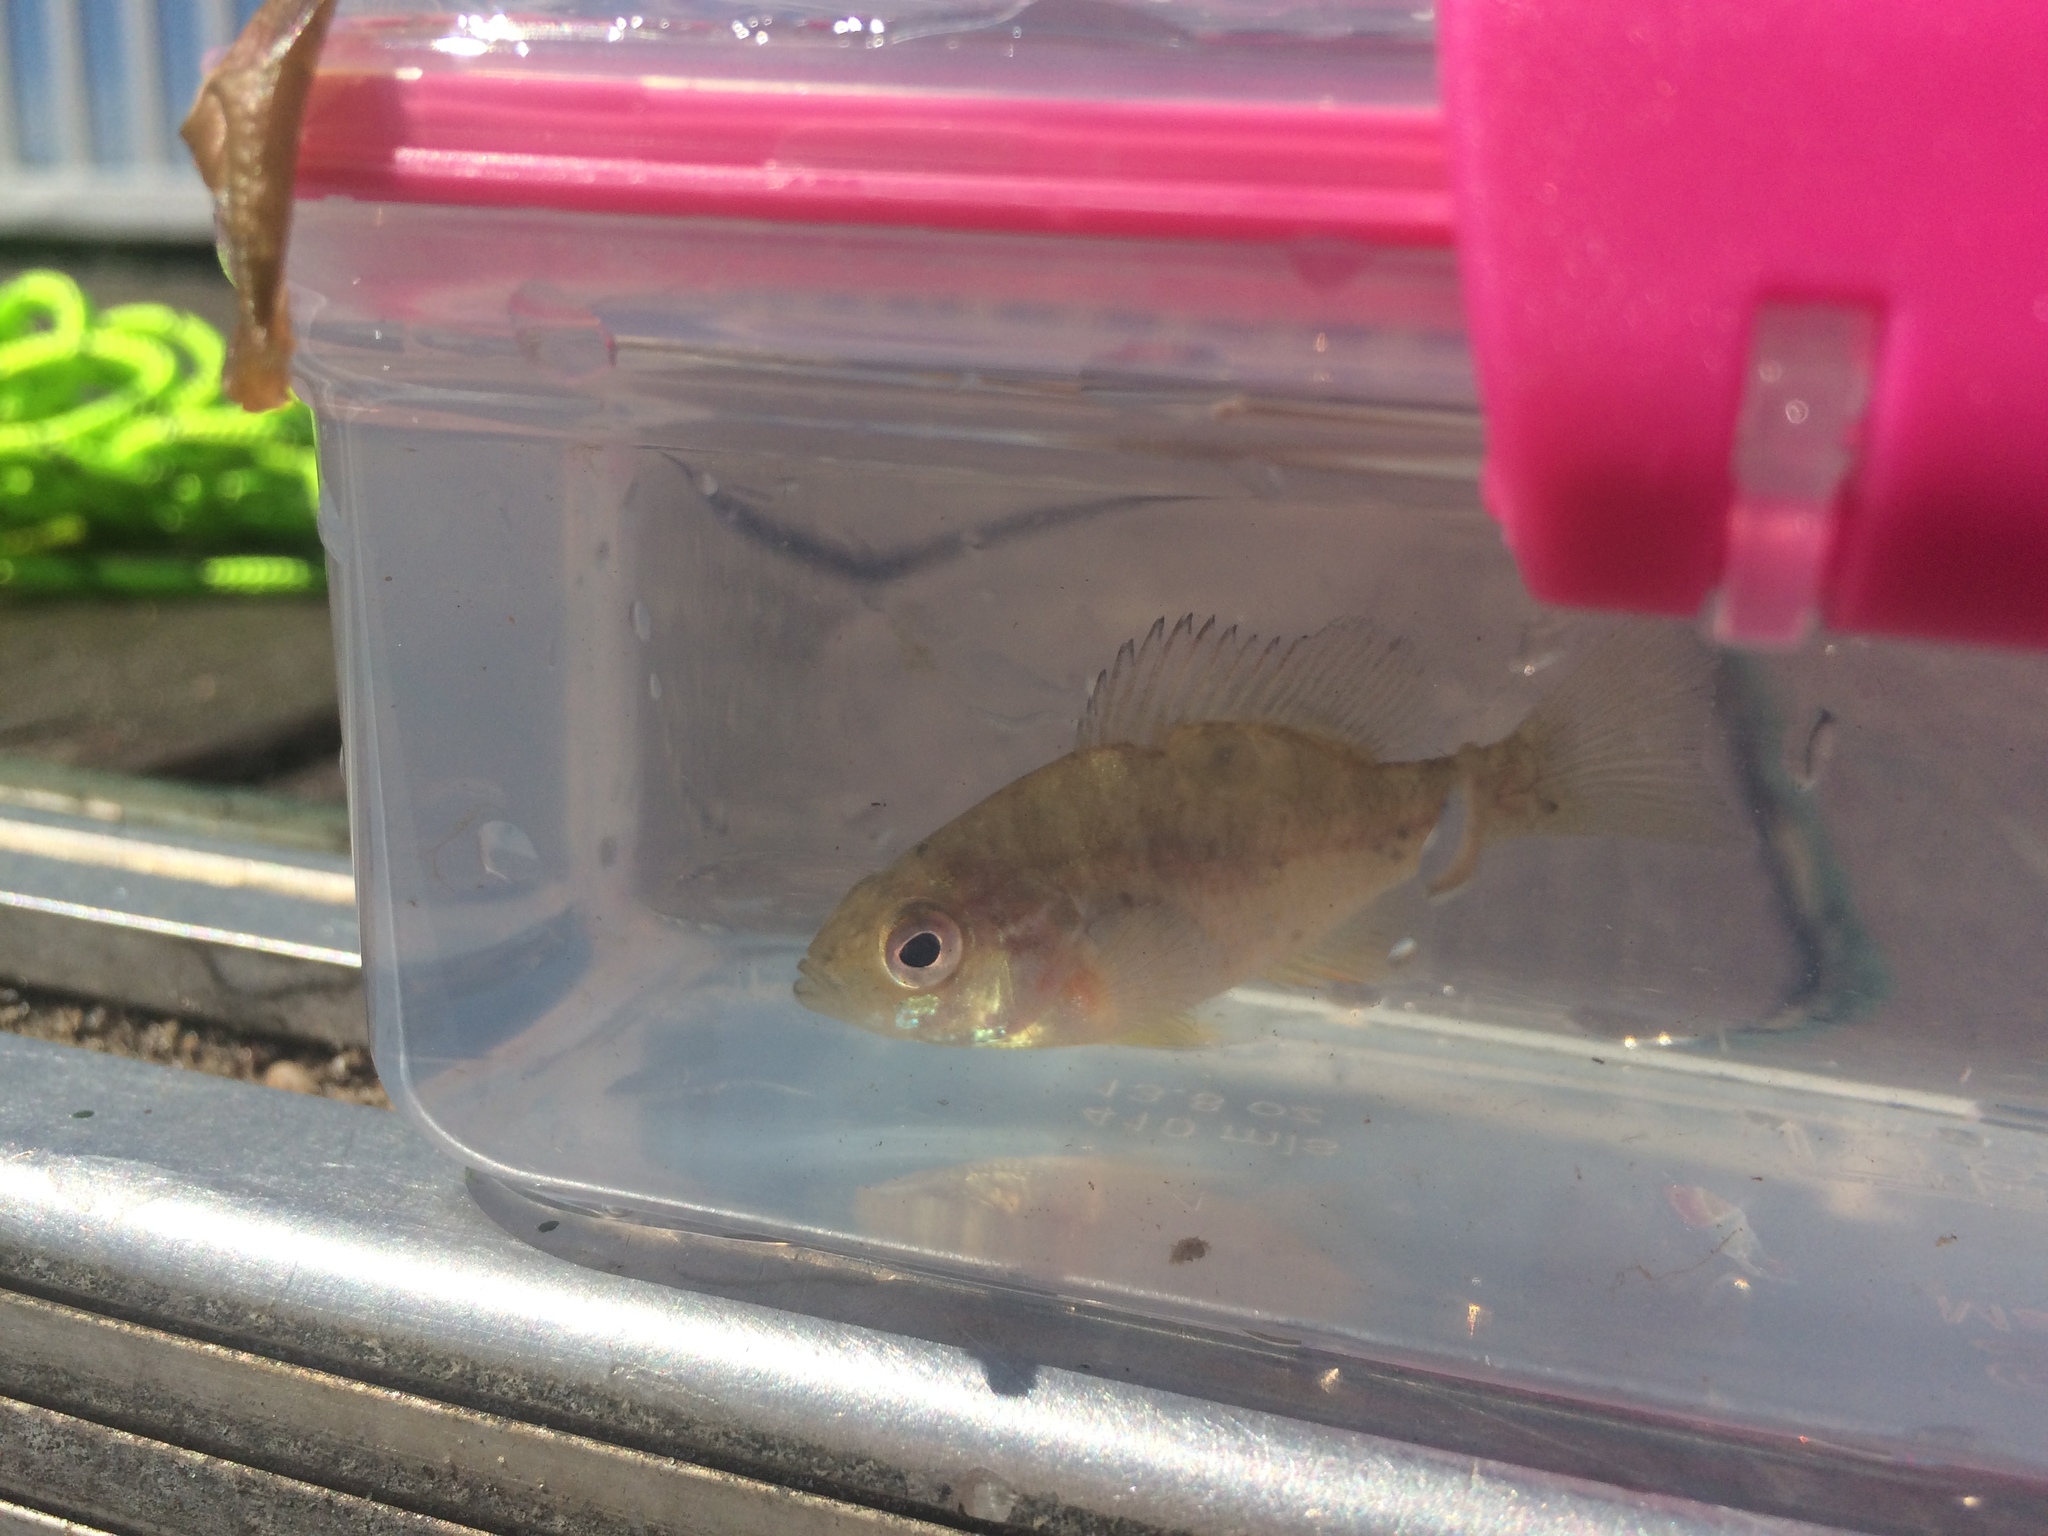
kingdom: Animalia
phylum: Chordata
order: Perciformes
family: Centrarchidae
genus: Lepomis
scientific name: Lepomis gibbosus
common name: Pumpkinseed
